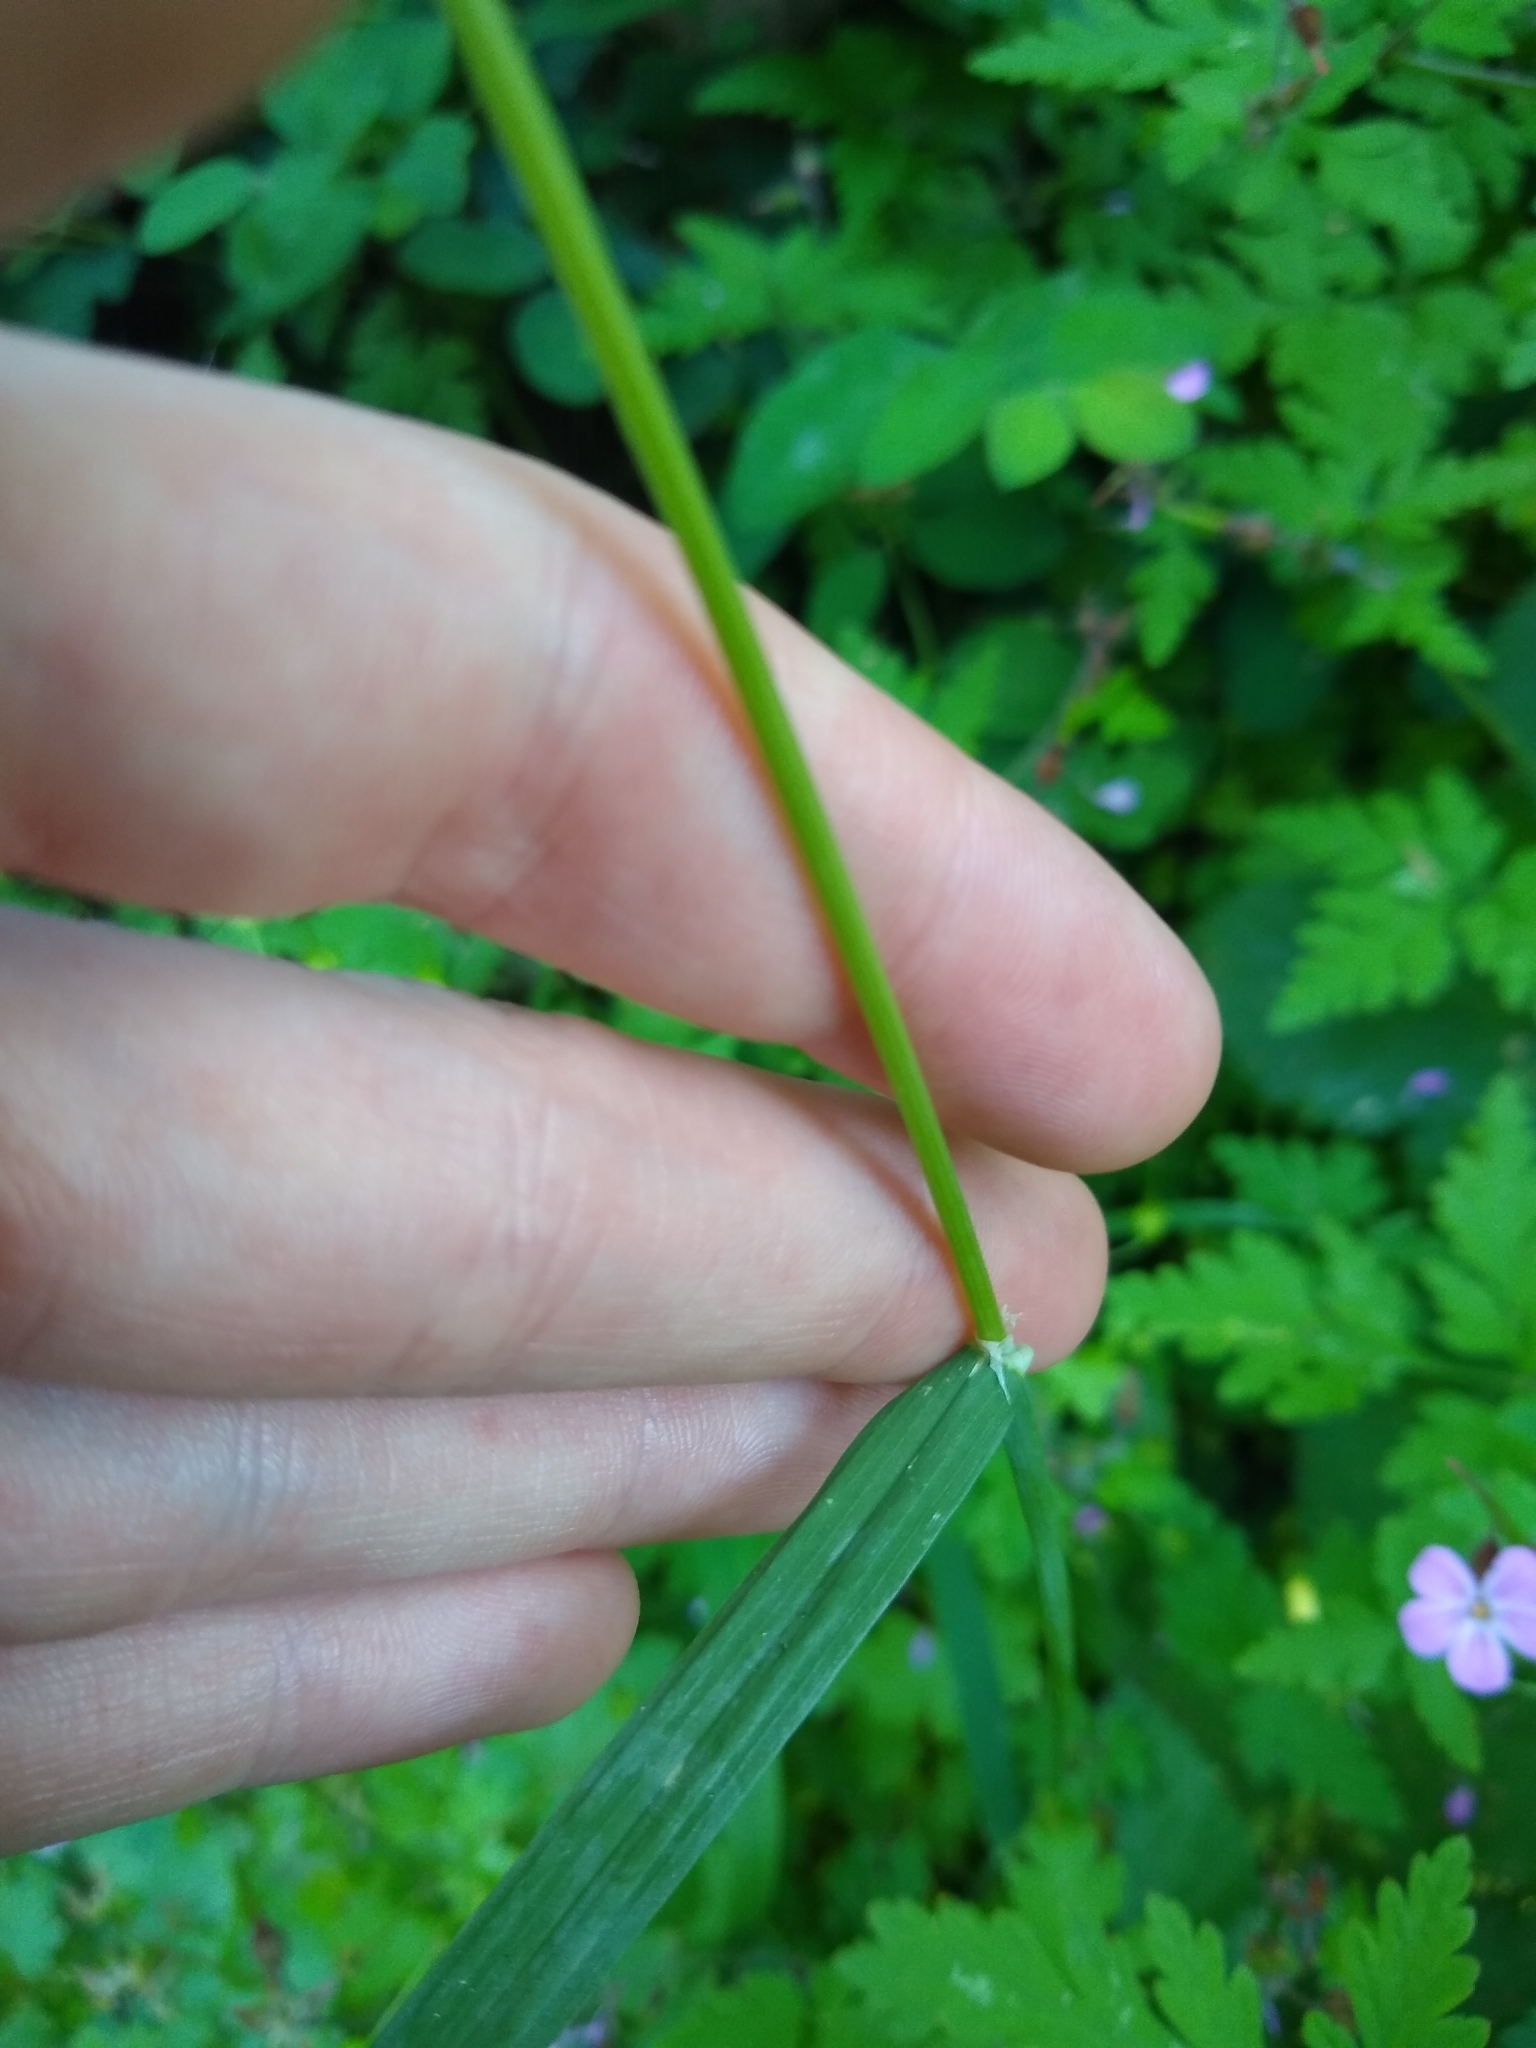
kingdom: Plantae
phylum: Tracheophyta
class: Liliopsida
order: Poales
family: Poaceae
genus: Dactylis
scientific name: Dactylis glomerata
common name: Orchardgrass
